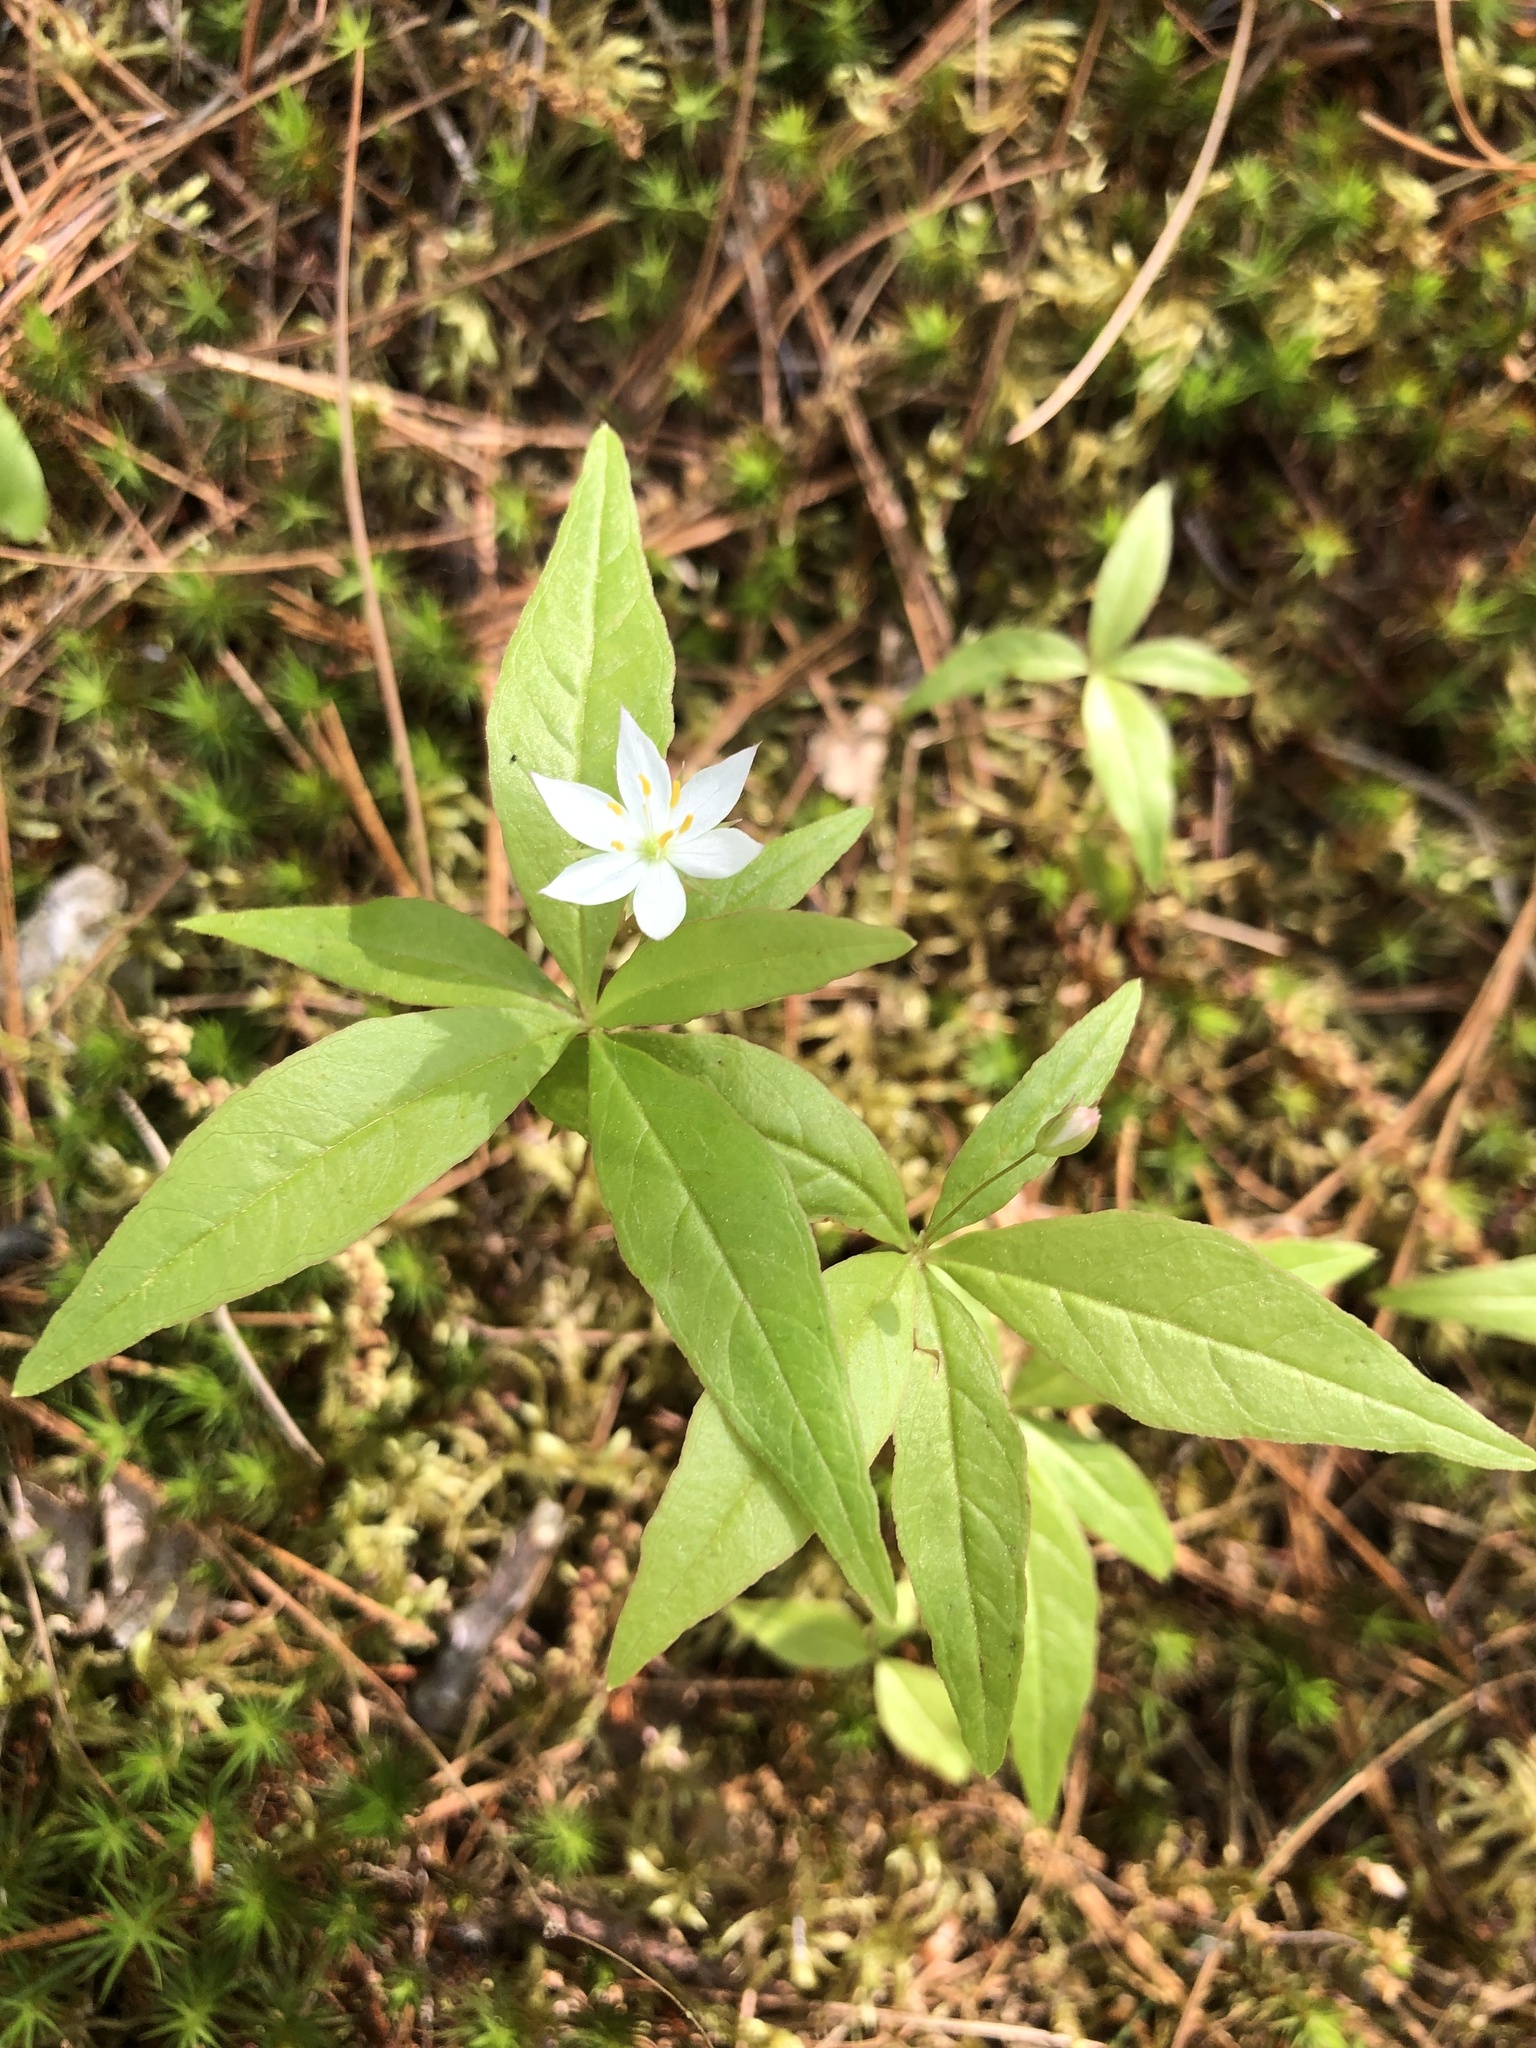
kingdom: Plantae
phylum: Tracheophyta
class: Magnoliopsida
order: Ericales
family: Primulaceae
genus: Lysimachia
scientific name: Lysimachia borealis
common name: American starflower
